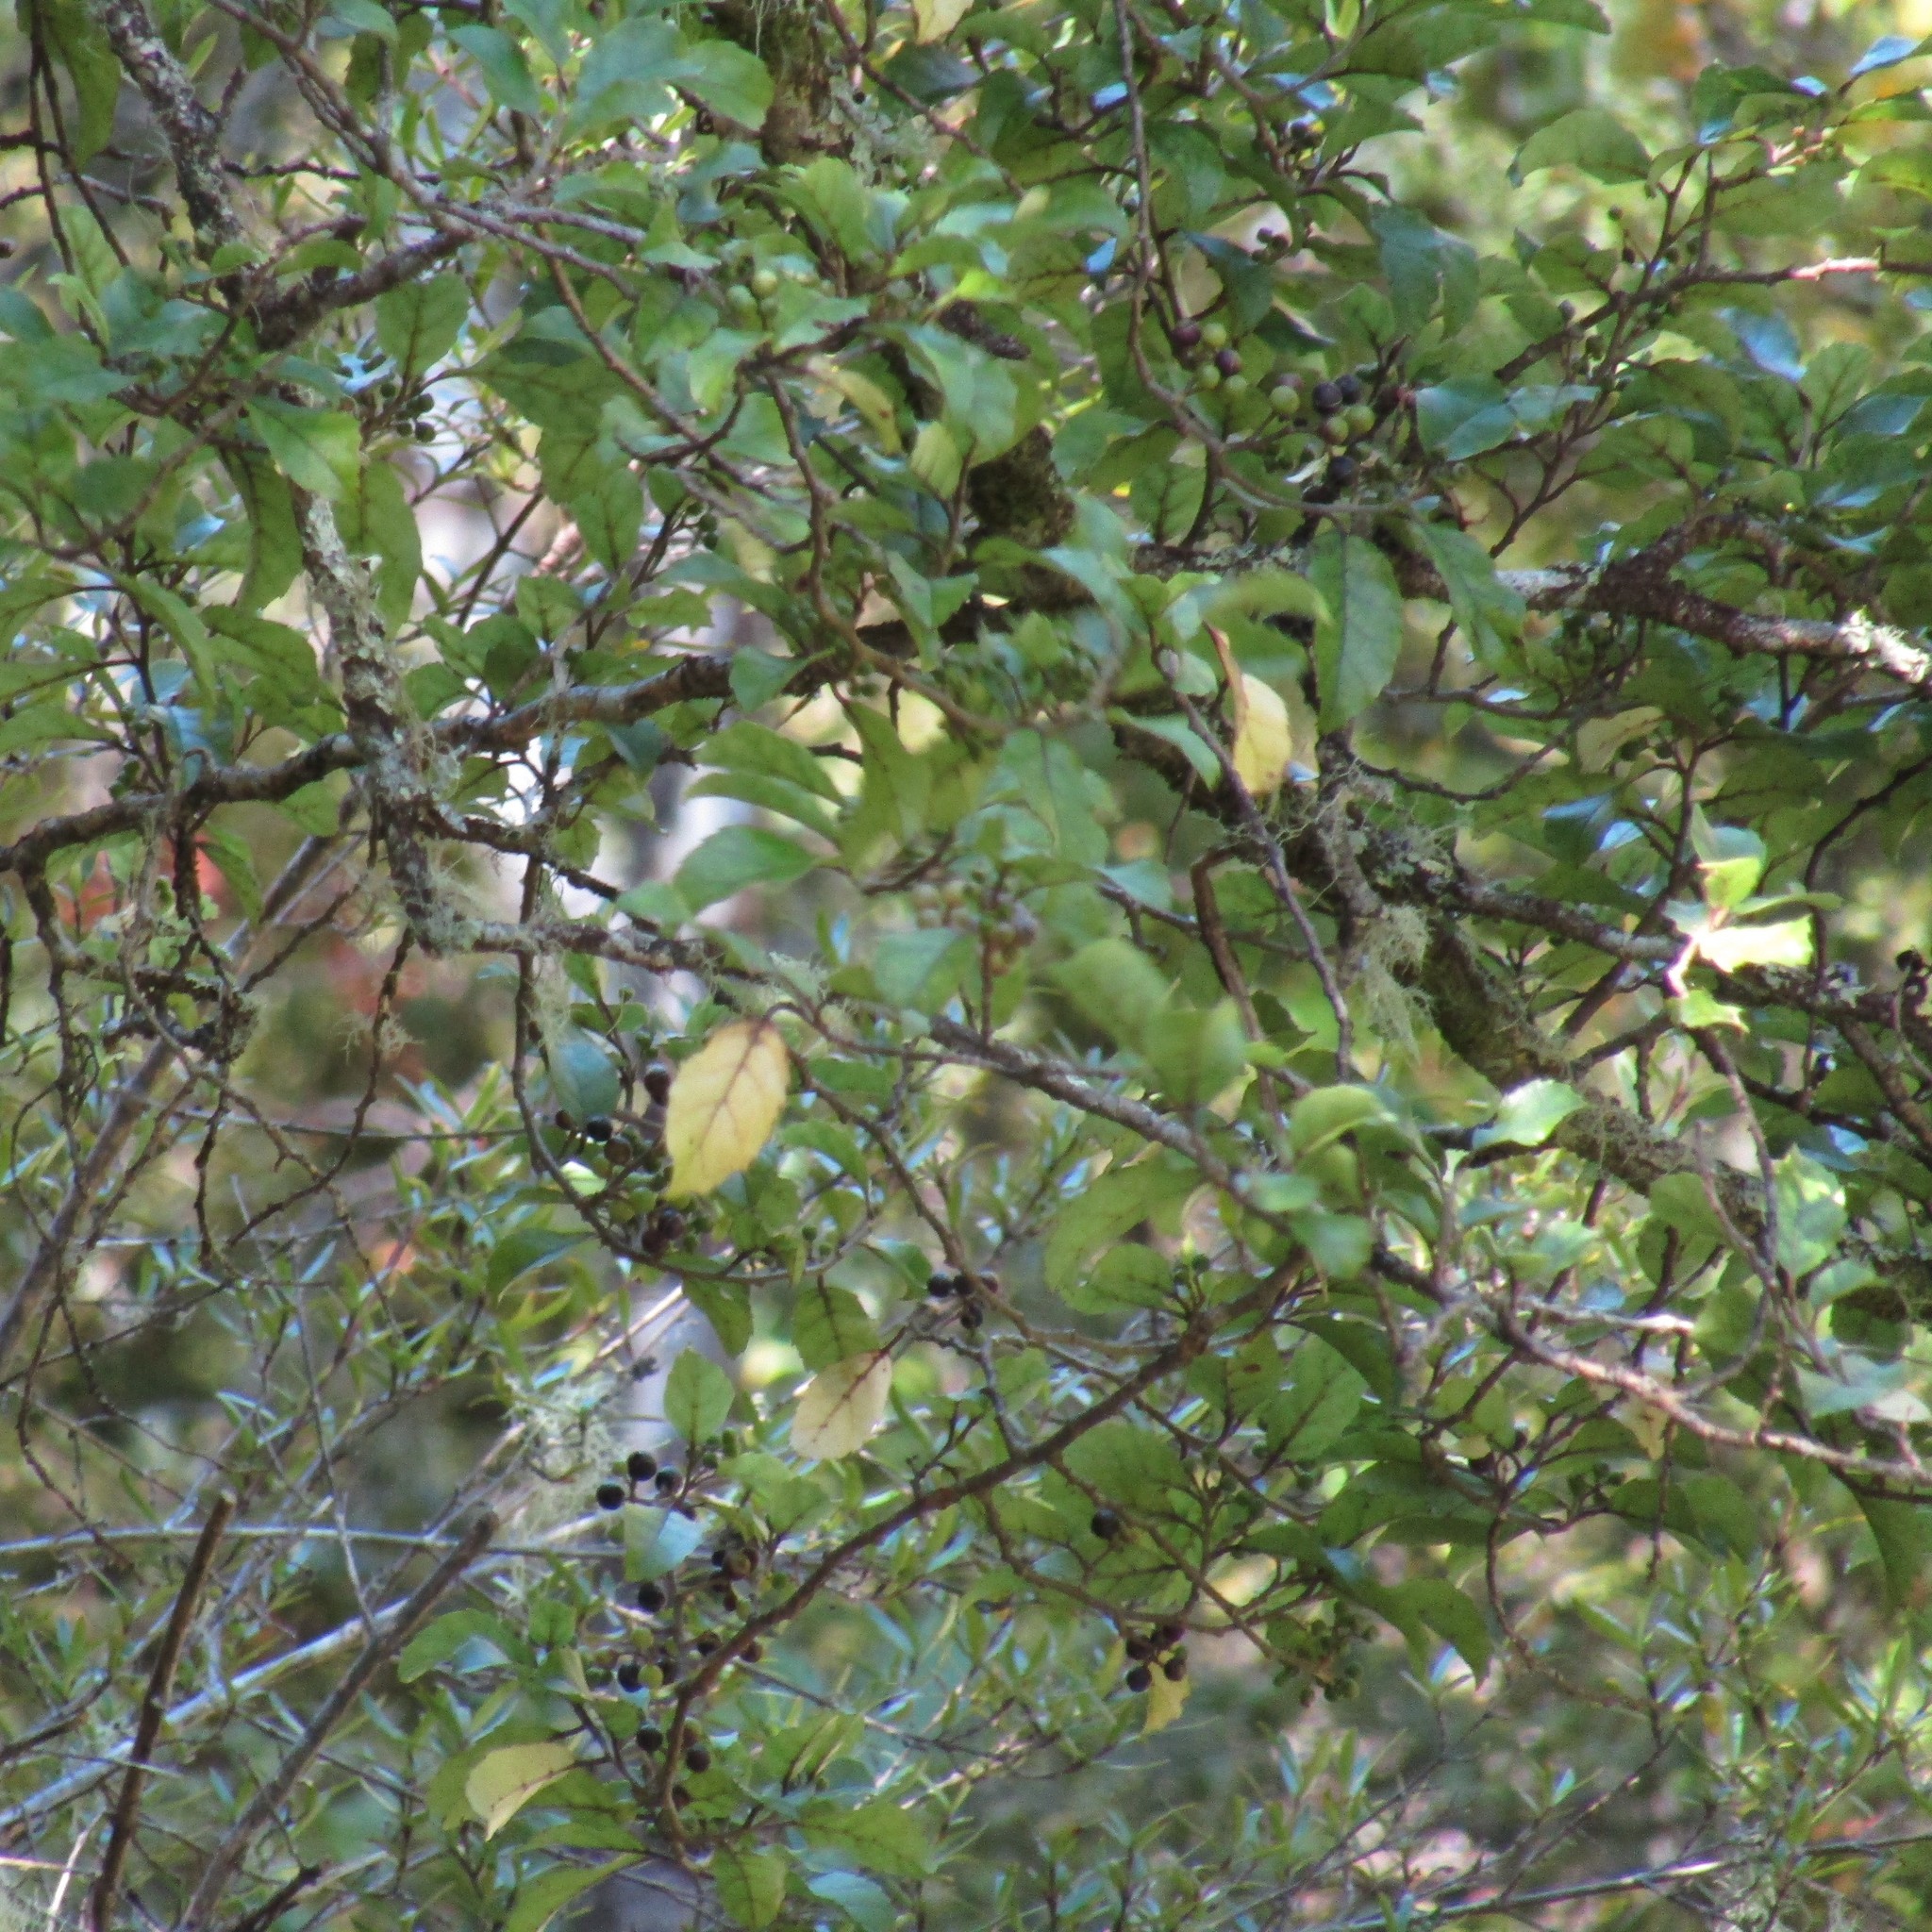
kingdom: Plantae
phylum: Tracheophyta
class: Magnoliopsida
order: Asterales
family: Rousseaceae
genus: Carpodetus
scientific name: Carpodetus serratus
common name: White mapau
